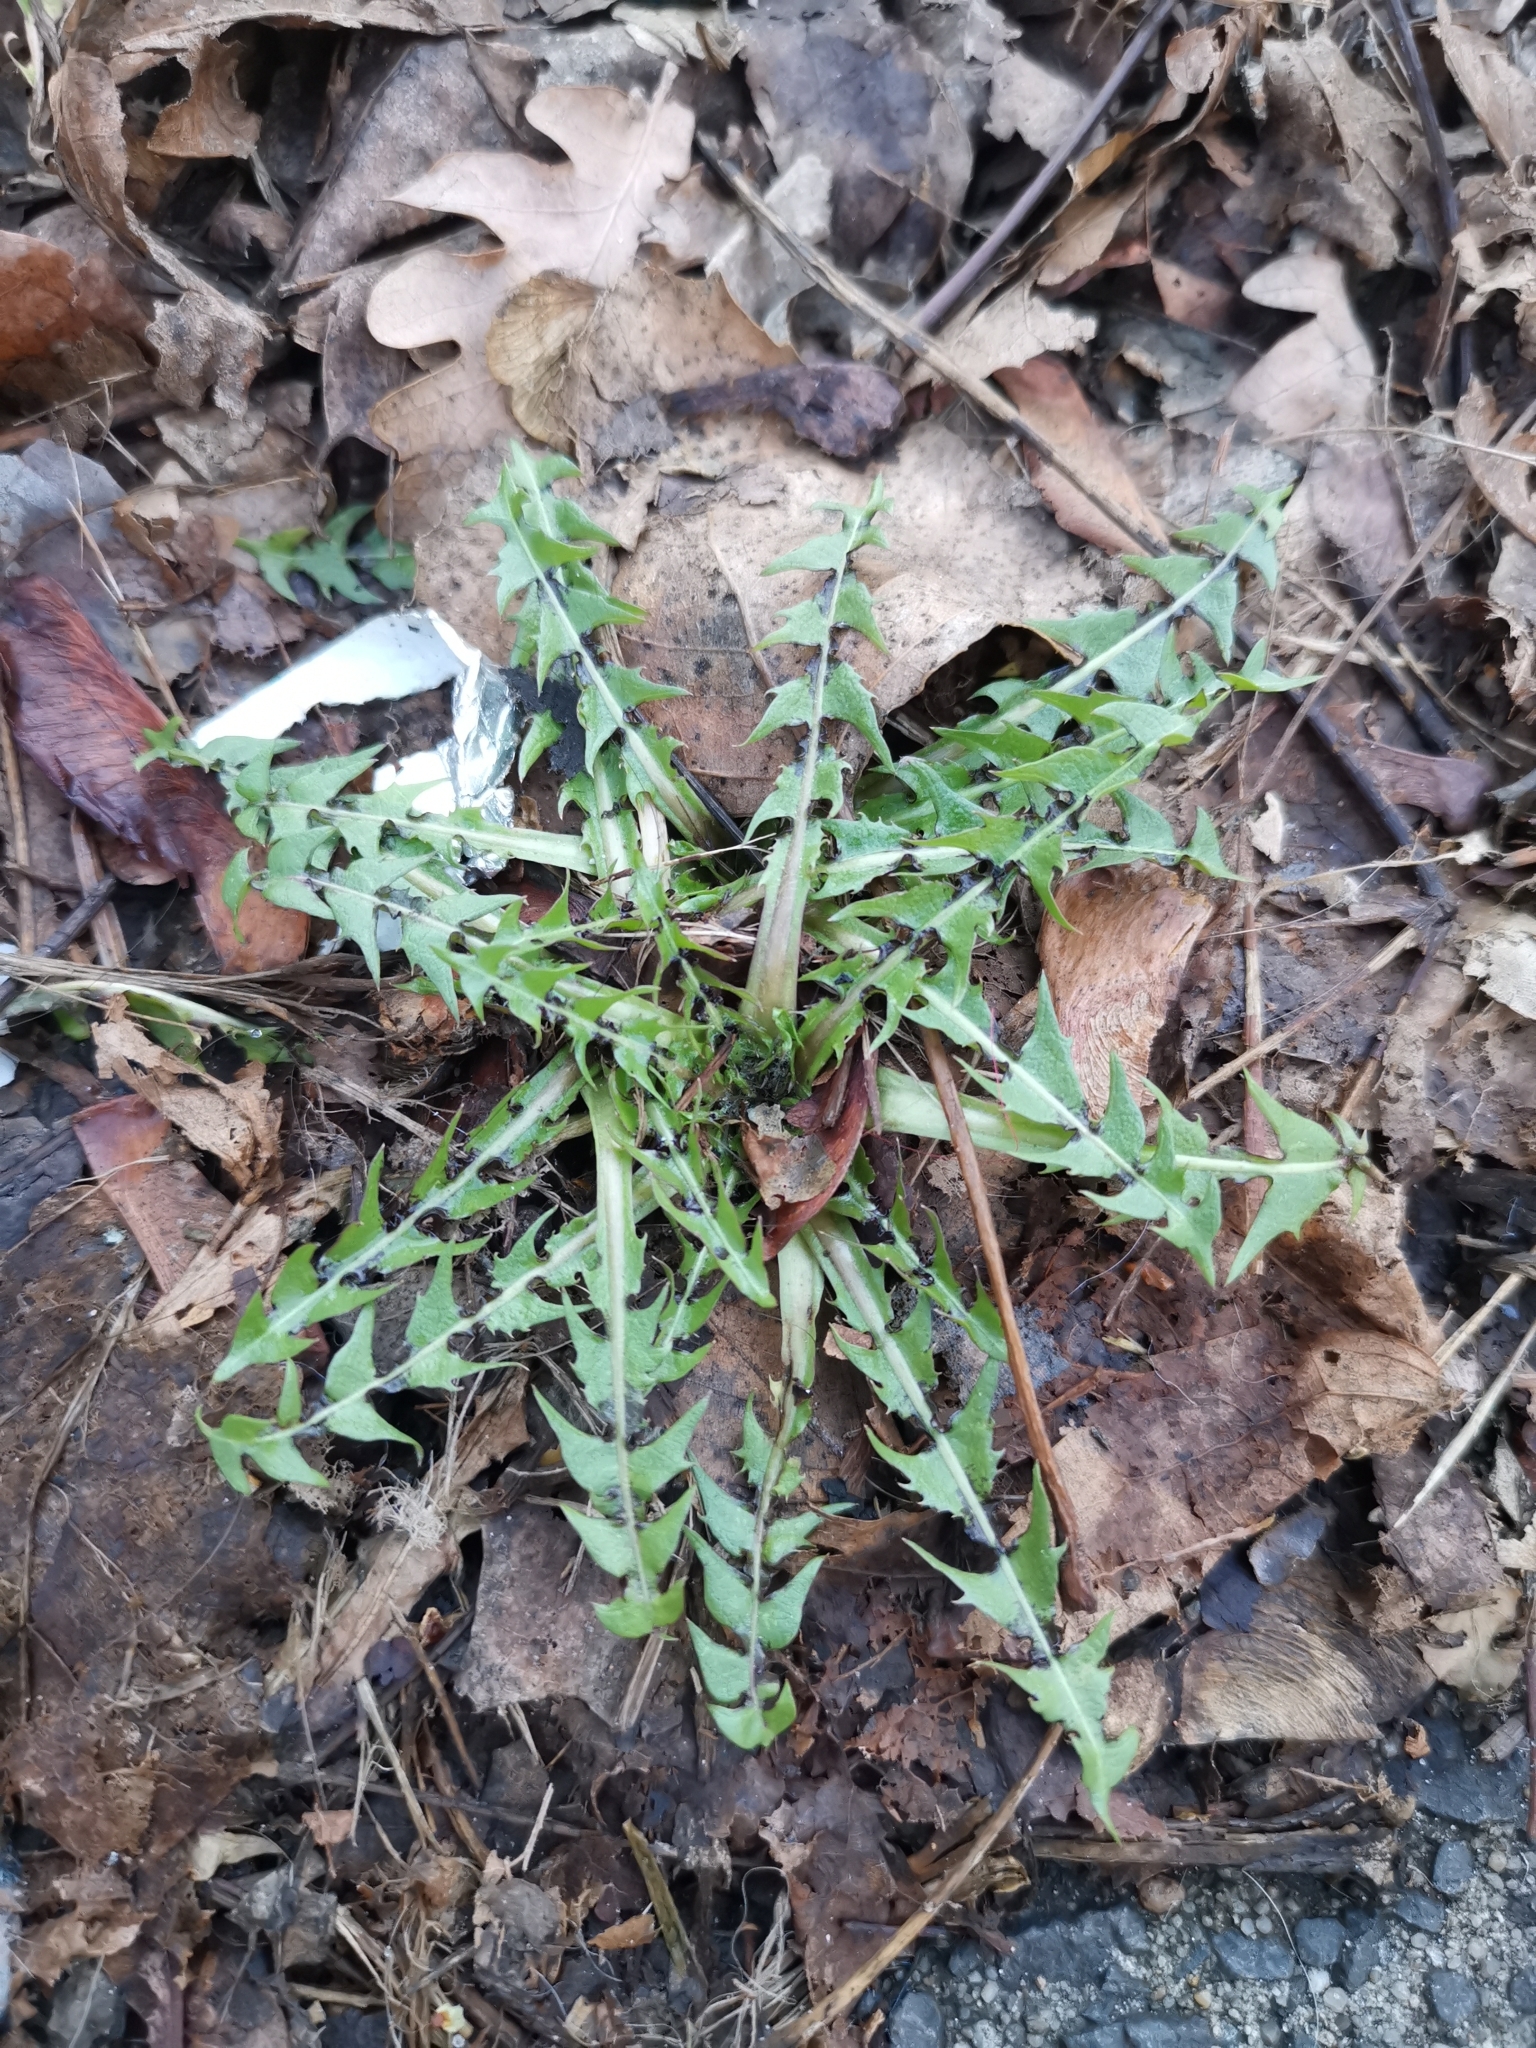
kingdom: Plantae
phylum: Tracheophyta
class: Magnoliopsida
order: Asterales
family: Asteraceae
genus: Taraxacum
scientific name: Taraxacum
